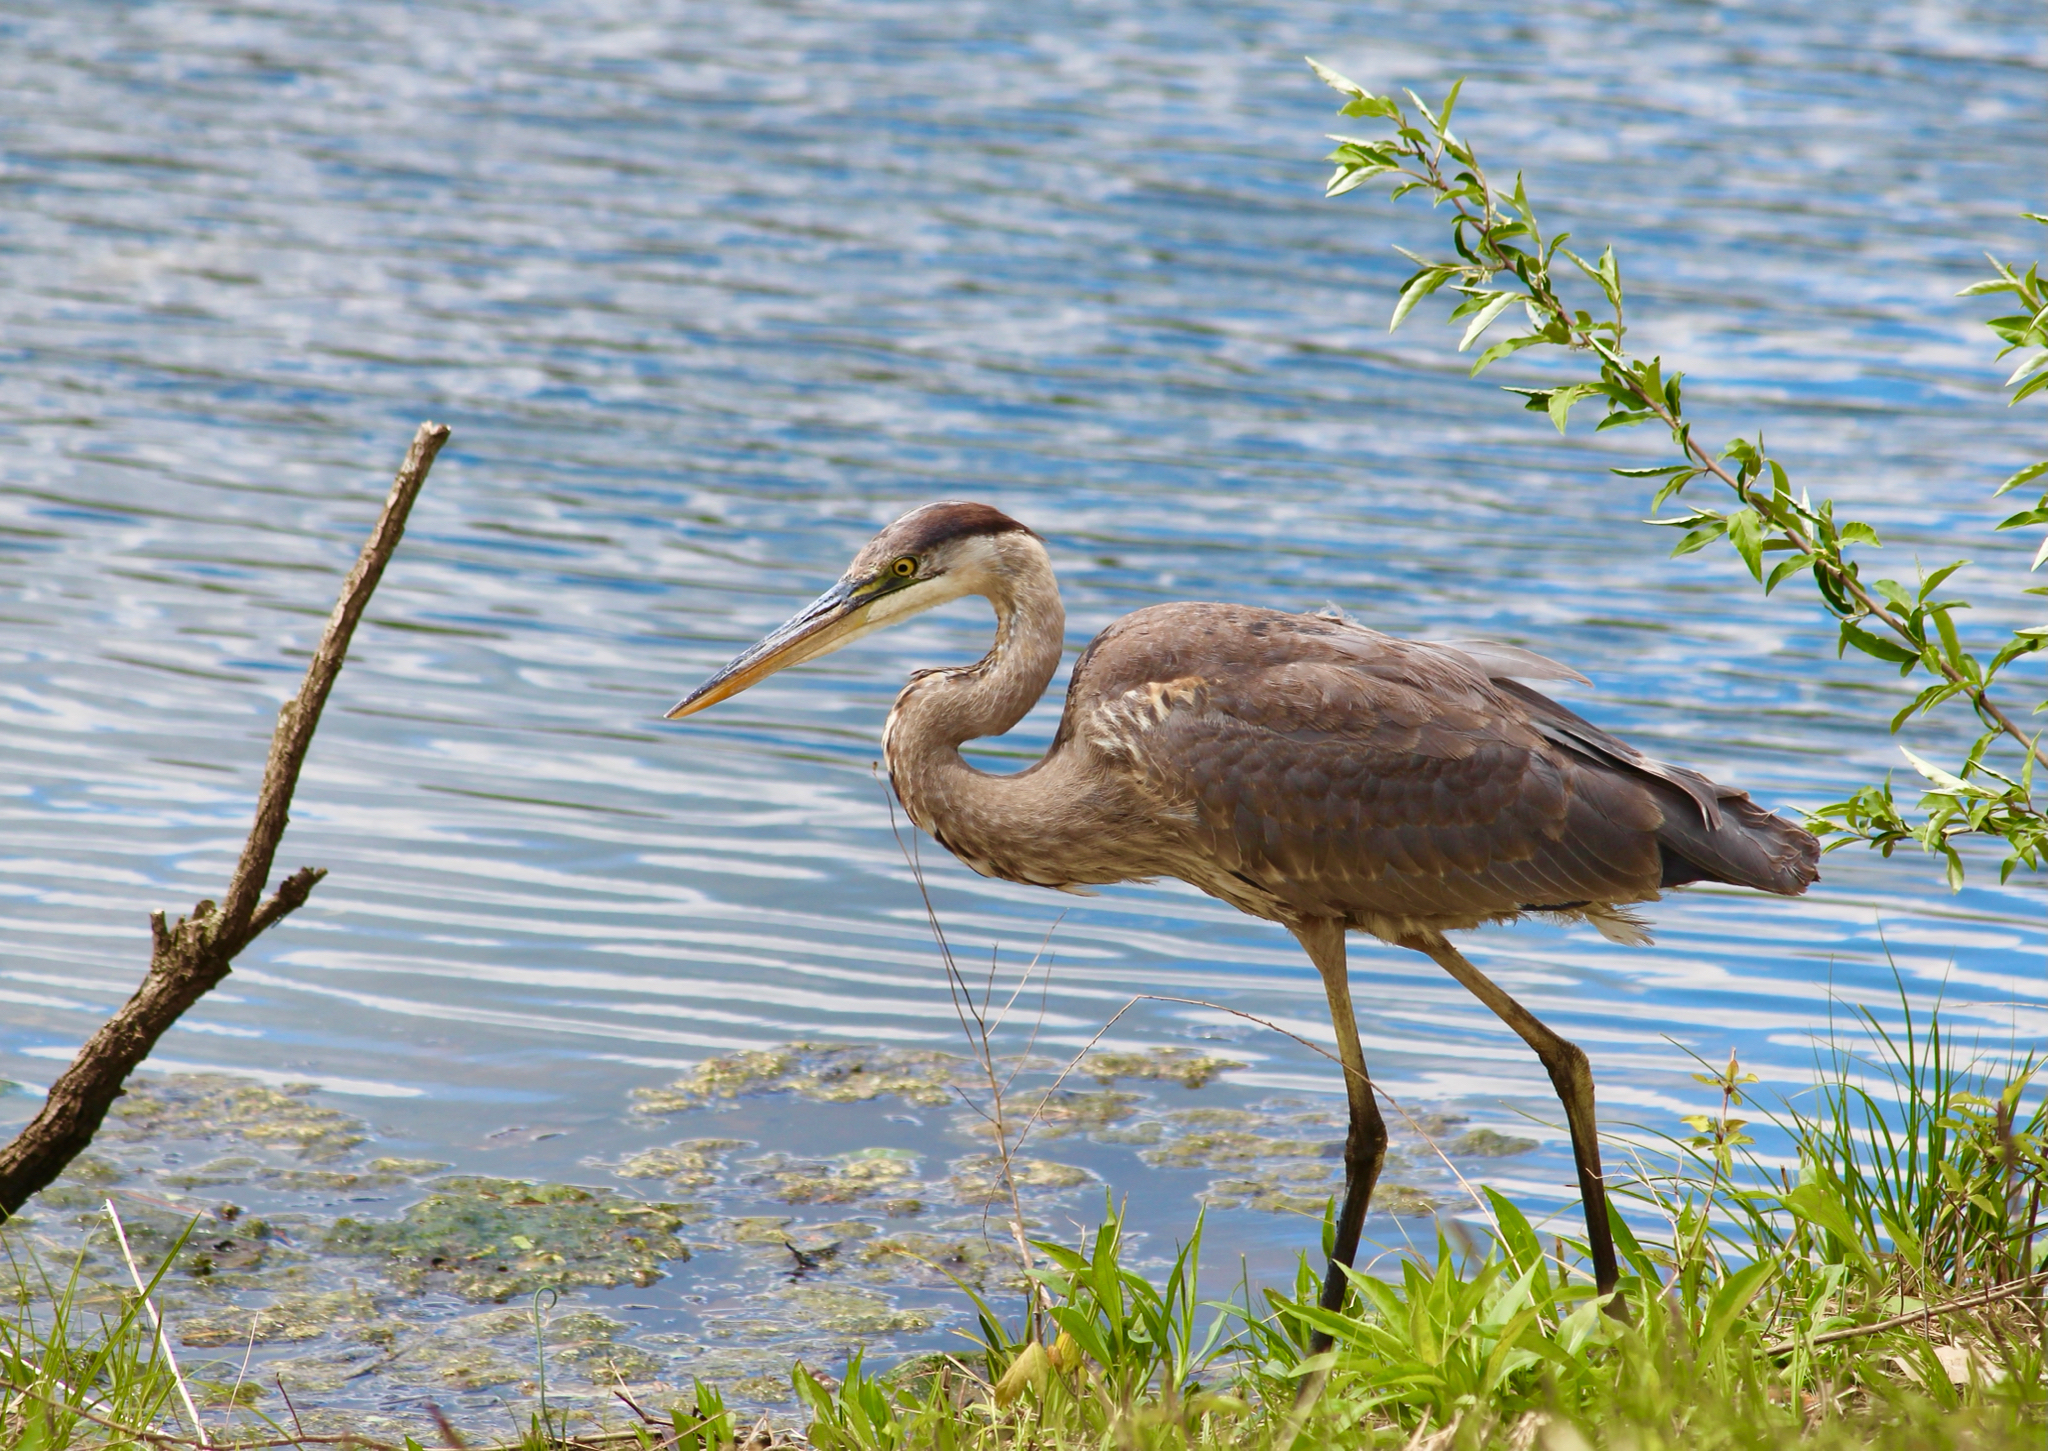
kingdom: Animalia
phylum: Chordata
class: Aves
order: Pelecaniformes
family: Ardeidae
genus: Ardea
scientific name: Ardea herodias
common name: Great blue heron
